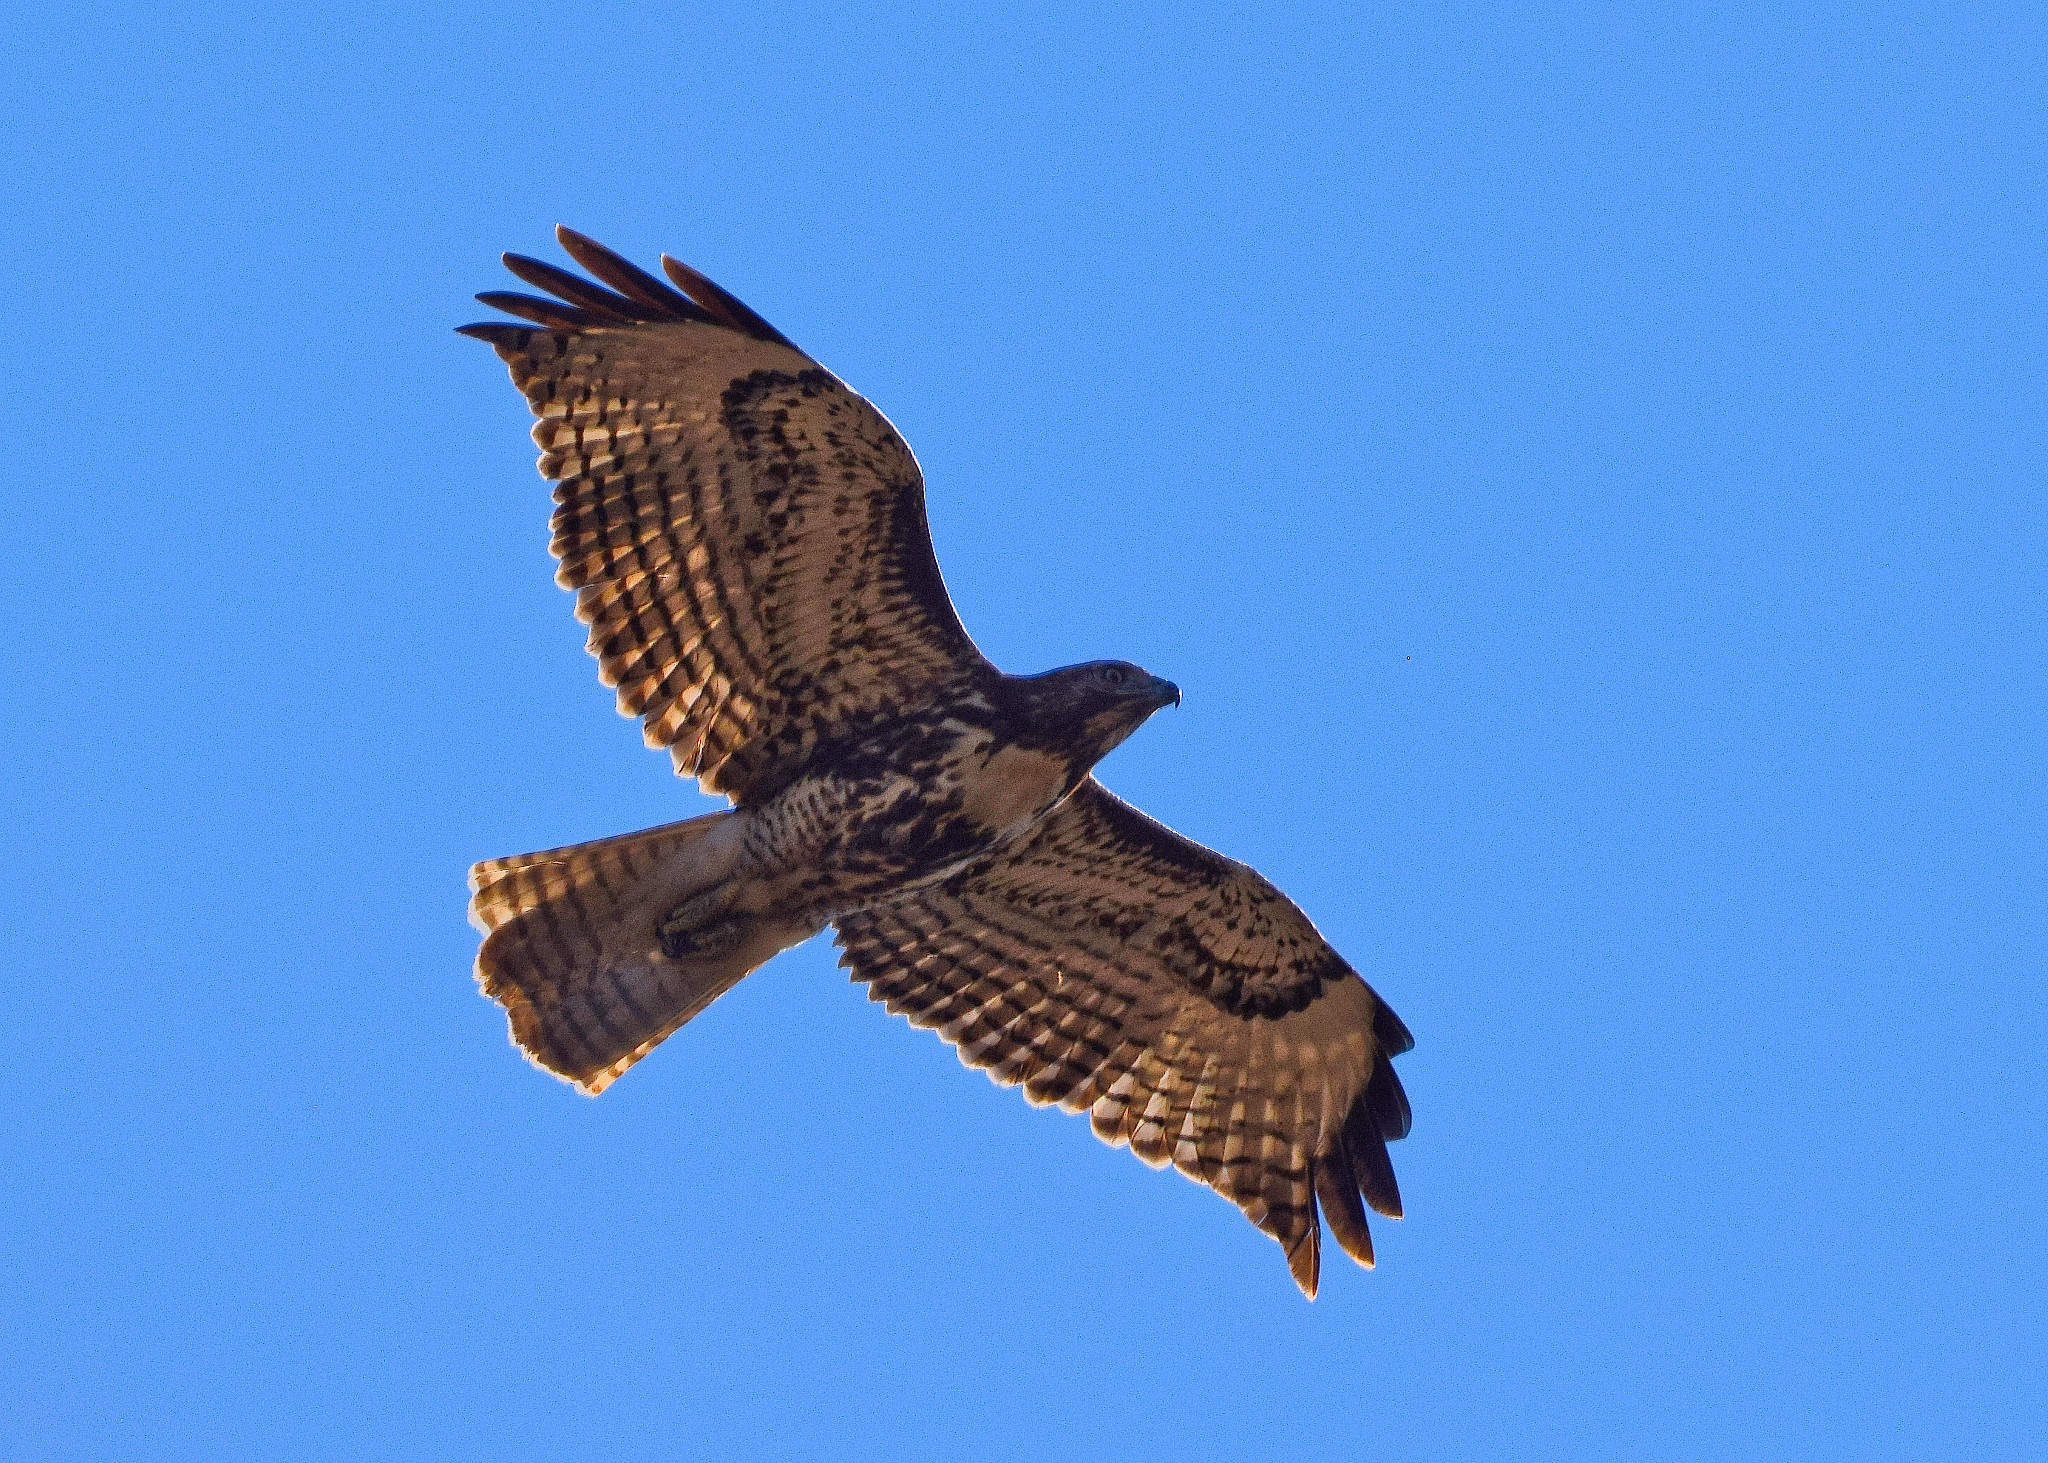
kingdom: Animalia
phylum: Chordata
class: Aves
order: Accipitriformes
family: Accipitridae
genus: Buteo
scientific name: Buteo jamaicensis
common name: Red-tailed hawk
